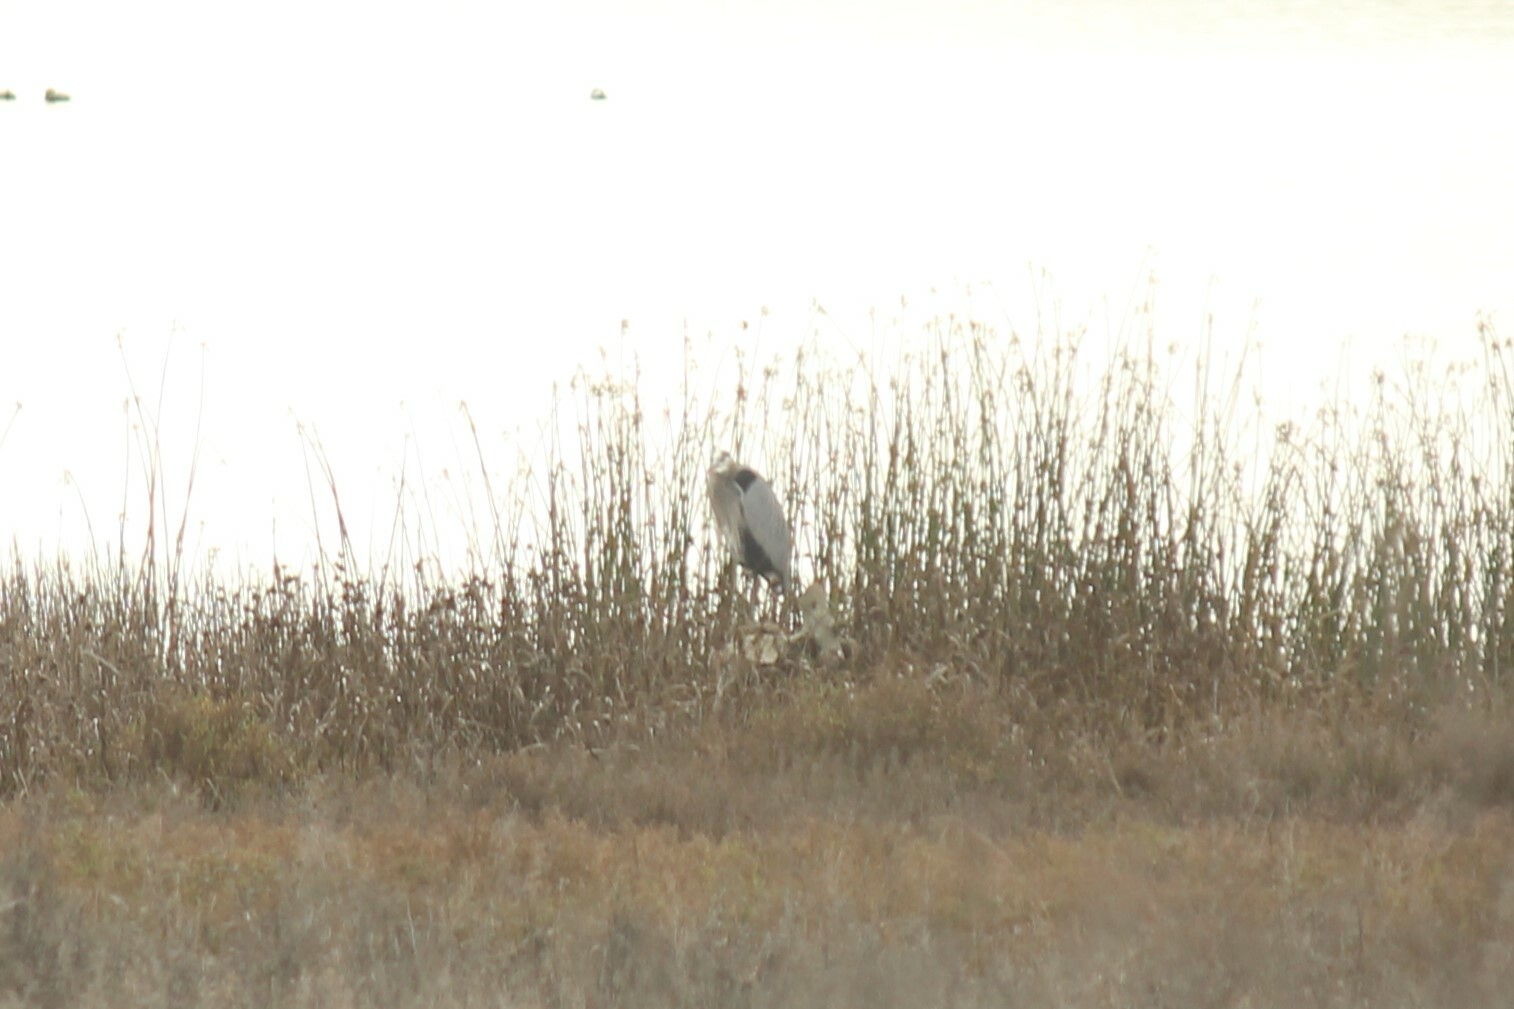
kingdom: Animalia
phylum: Chordata
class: Aves
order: Pelecaniformes
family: Ardeidae
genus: Ardea
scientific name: Ardea herodias
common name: Great blue heron
